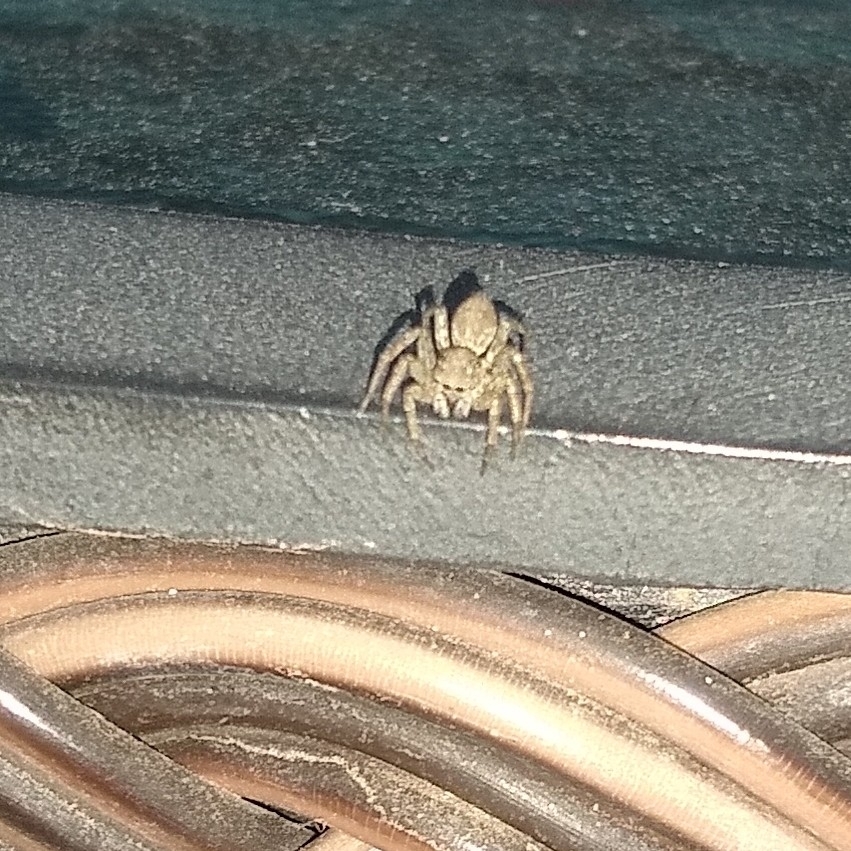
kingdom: Animalia
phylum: Arthropoda
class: Arachnida
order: Araneae
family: Salticidae
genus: Saitis
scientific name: Saitis variegatus
